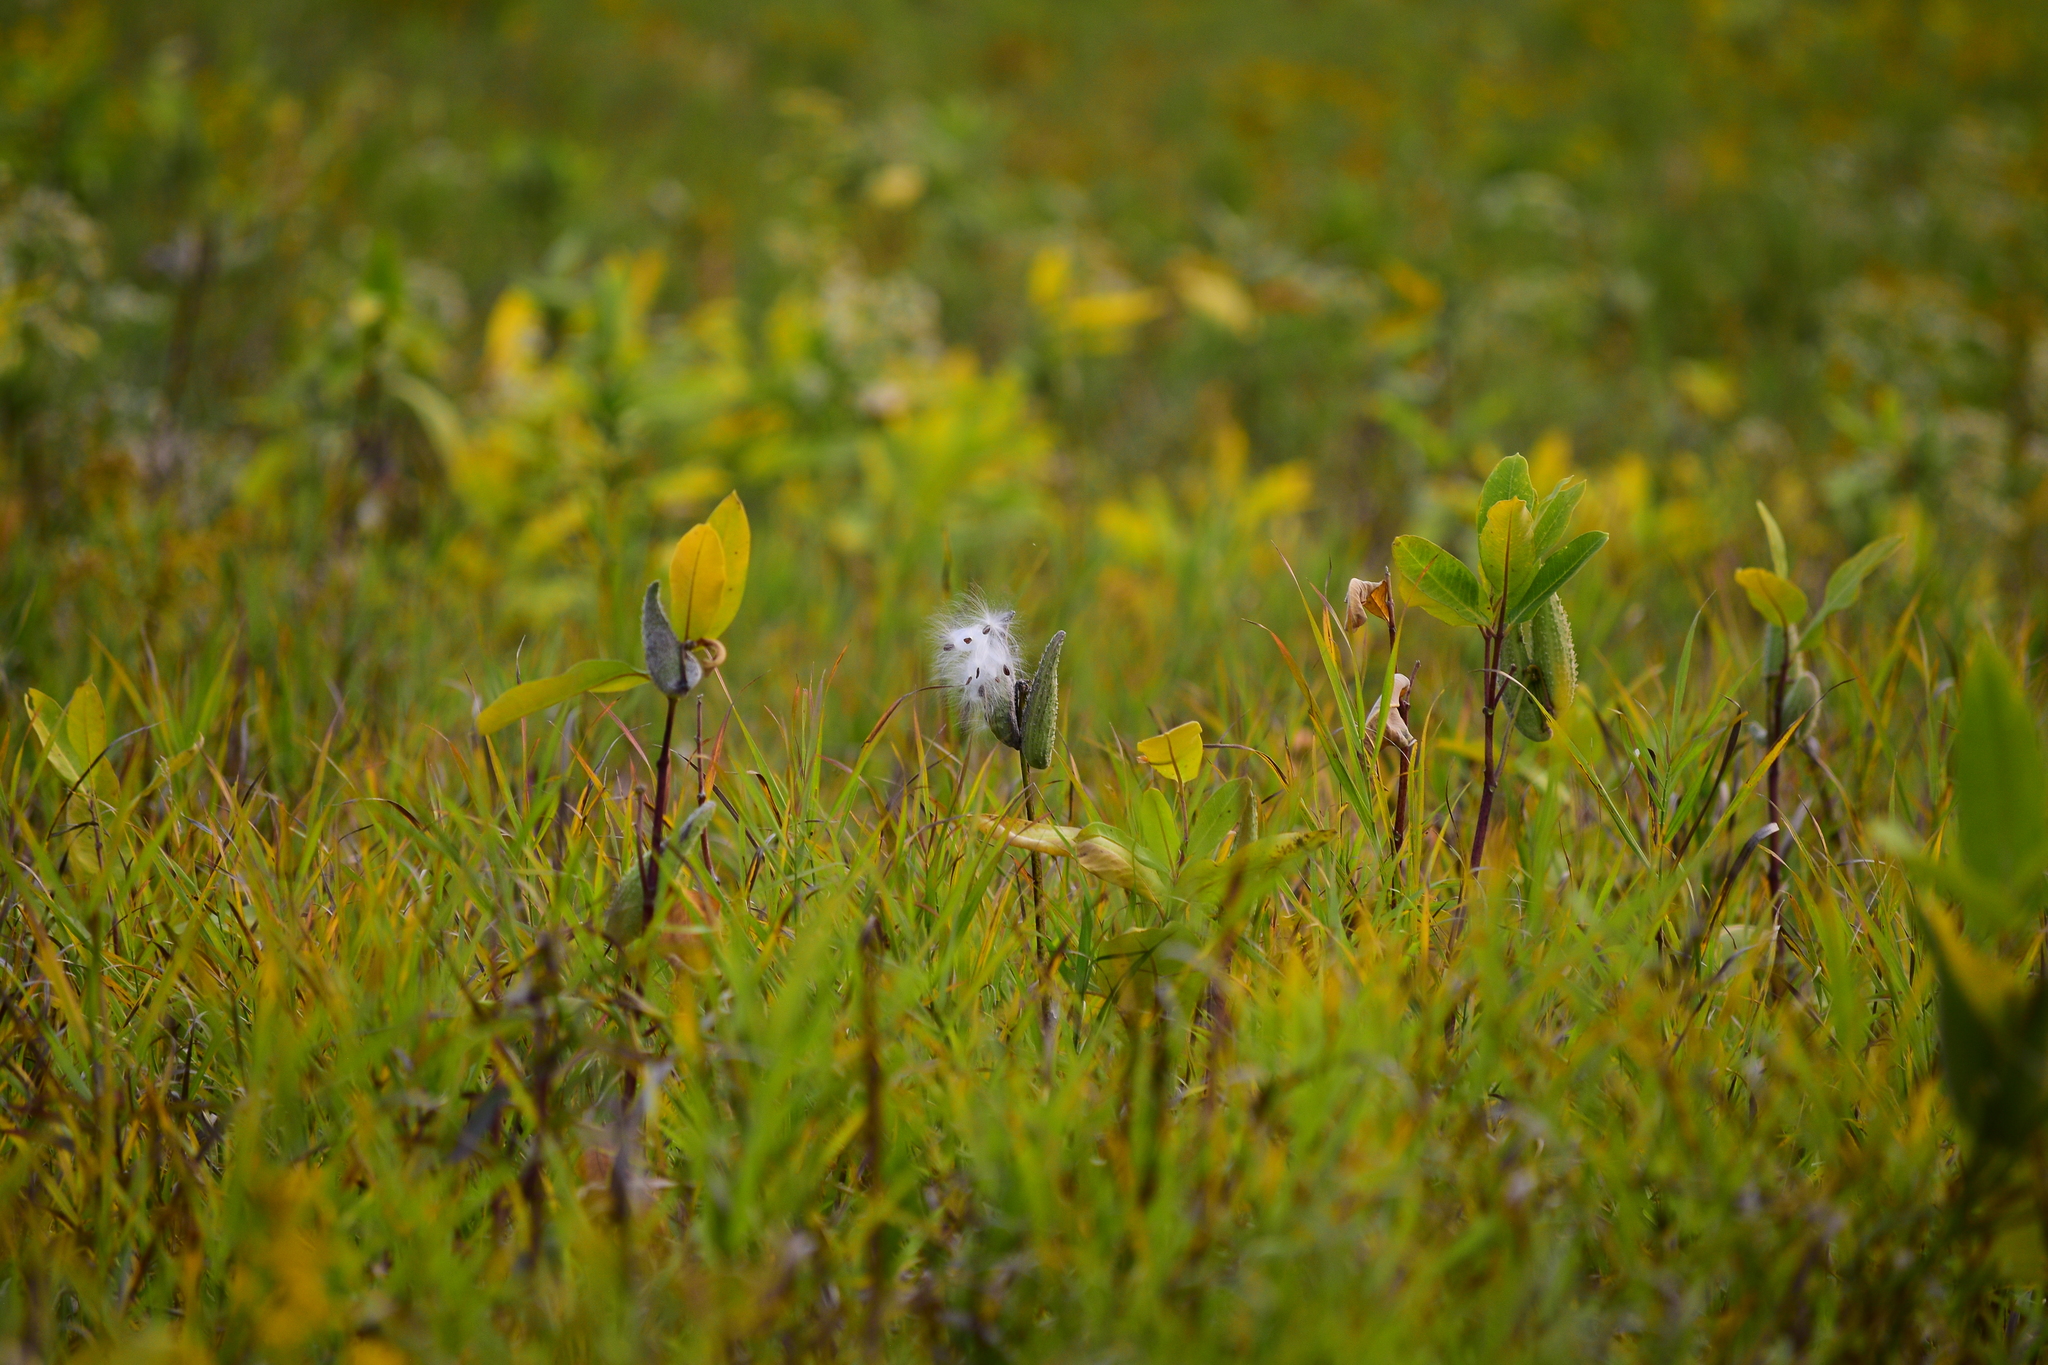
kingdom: Plantae
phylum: Tracheophyta
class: Magnoliopsida
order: Gentianales
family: Apocynaceae
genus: Asclepias
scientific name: Asclepias syriaca
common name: Common milkweed
